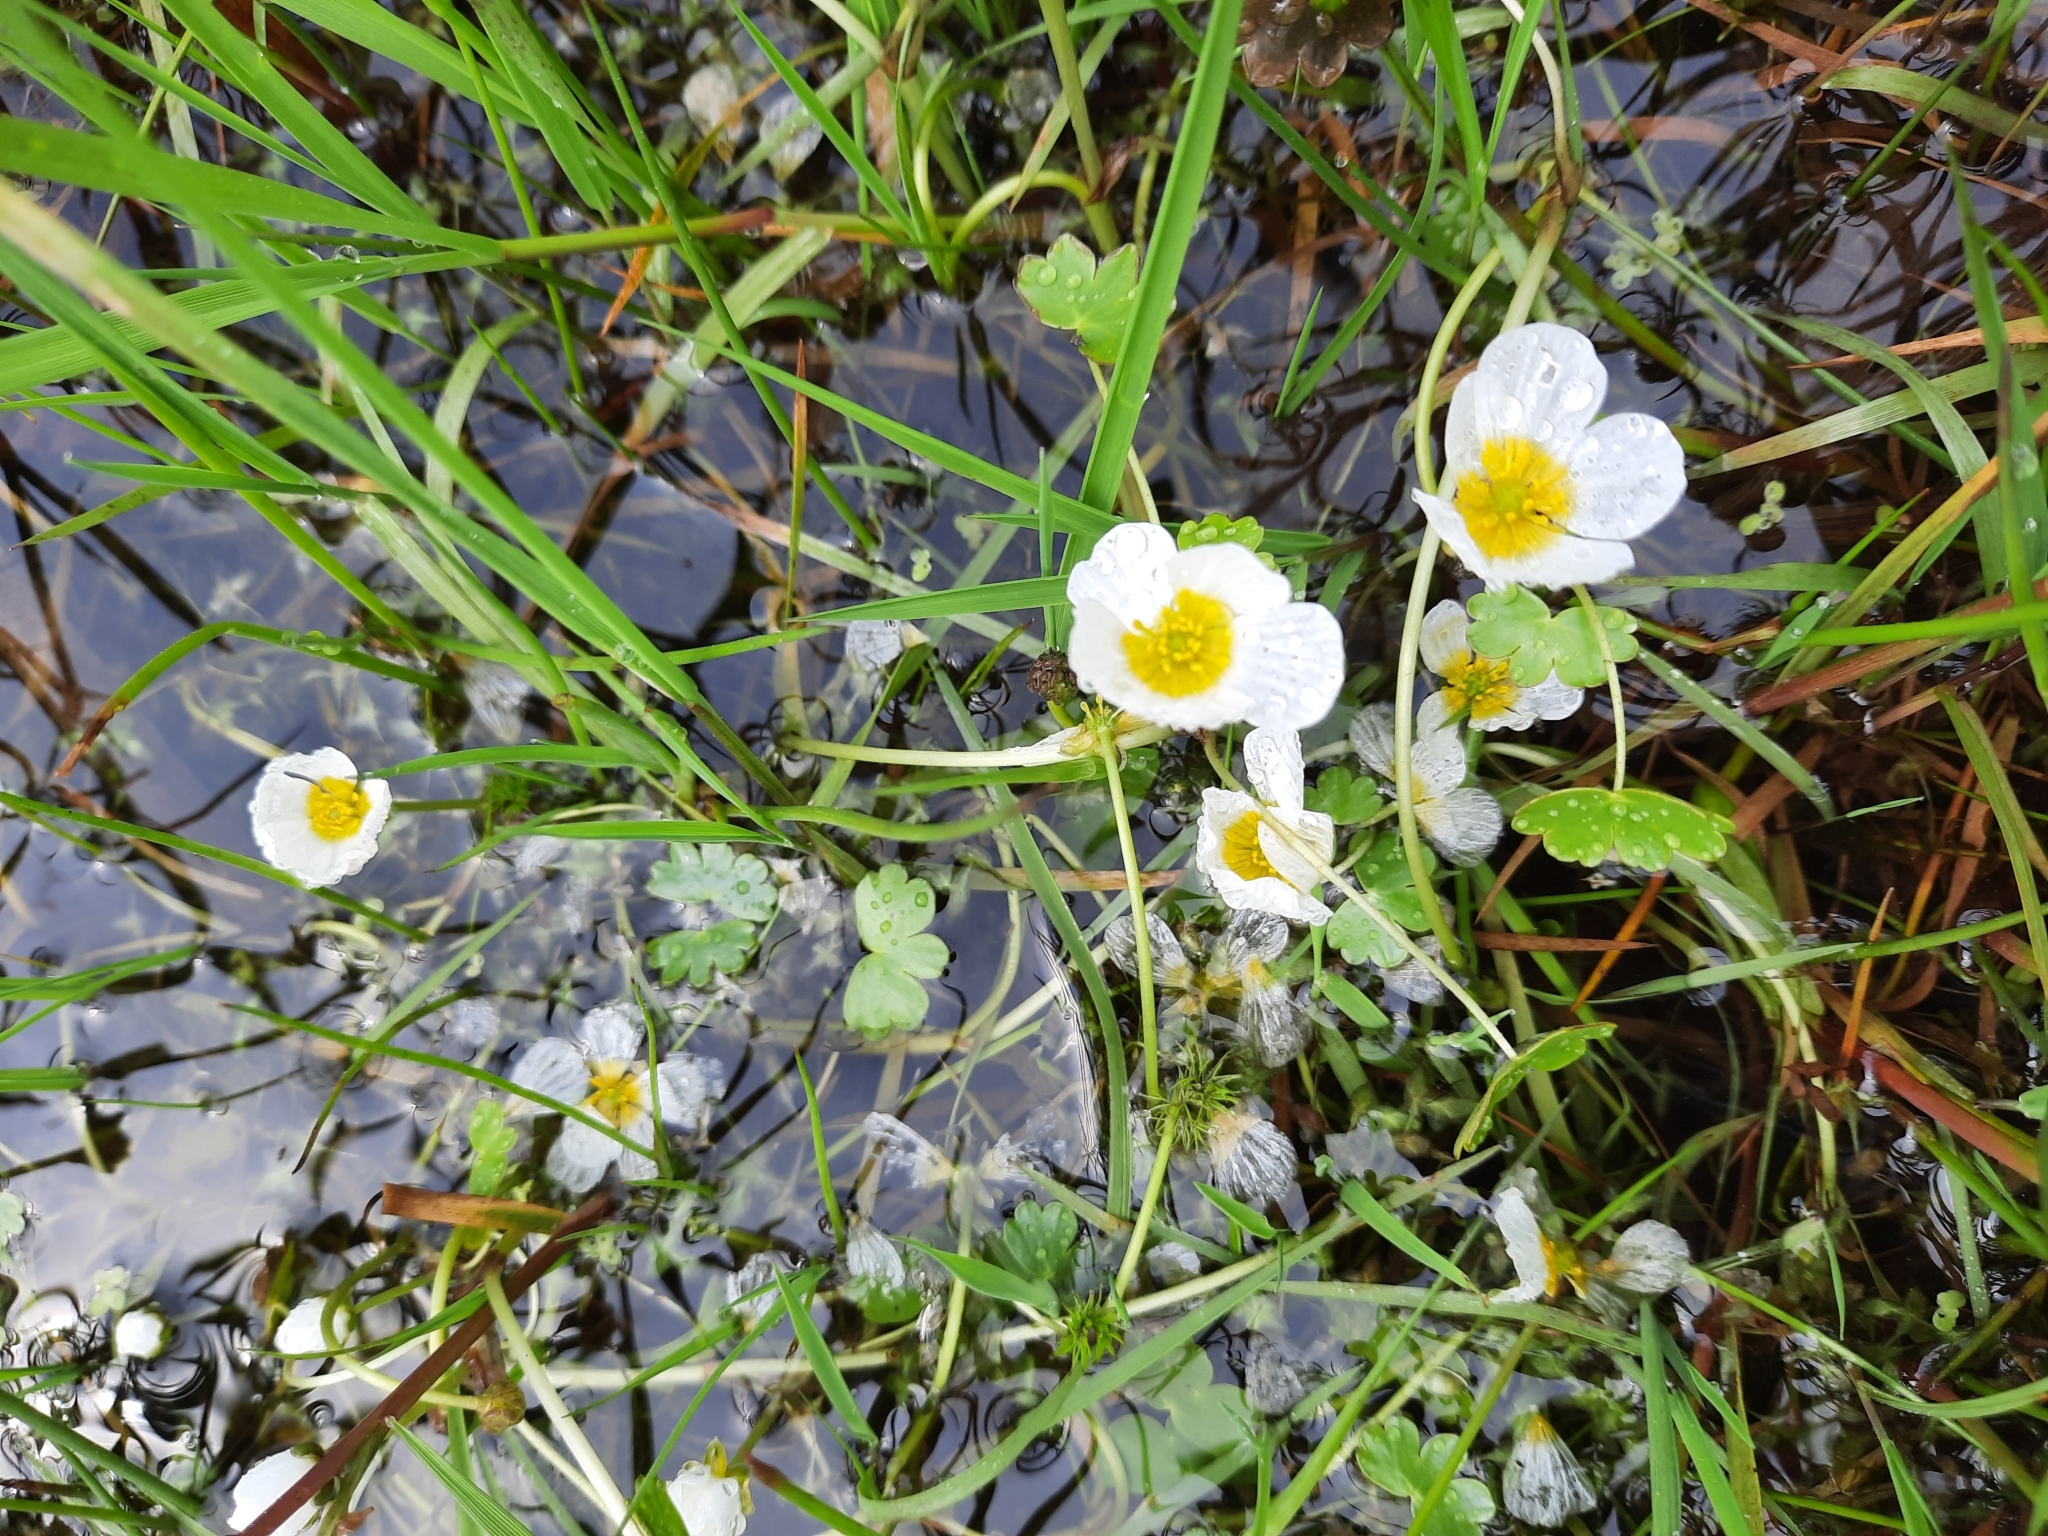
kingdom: Plantae
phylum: Tracheophyta
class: Magnoliopsida
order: Ranunculales
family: Ranunculaceae
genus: Ranunculus
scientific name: Ranunculus aquatilis
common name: Common water-crowfoot
